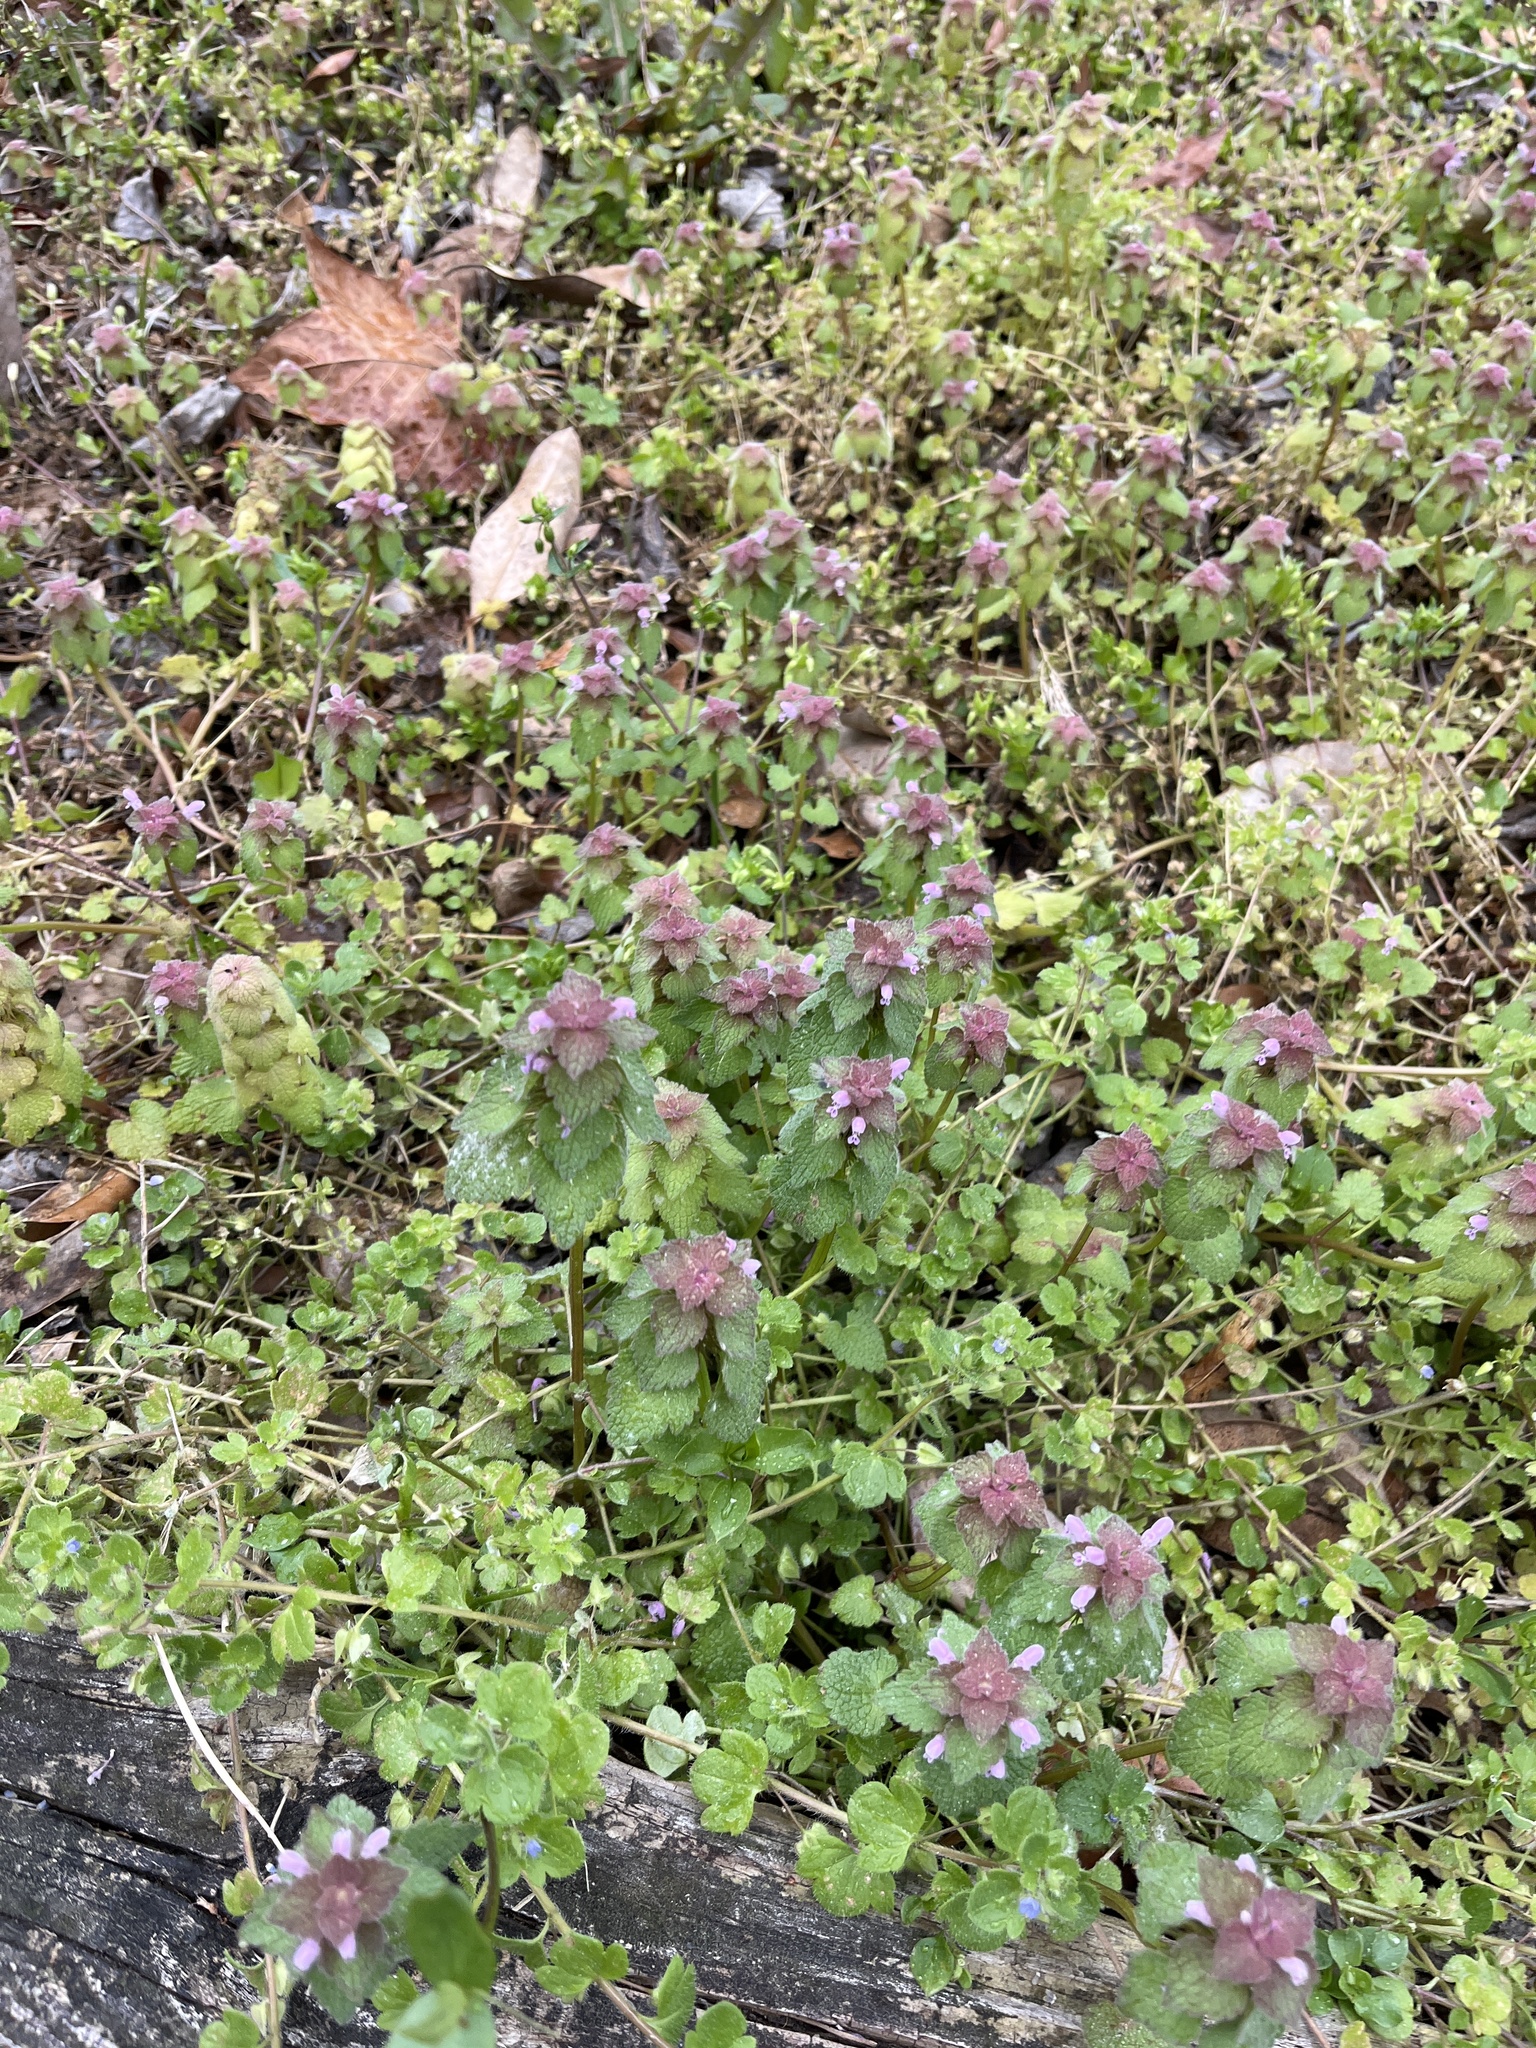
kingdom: Plantae
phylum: Tracheophyta
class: Magnoliopsida
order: Lamiales
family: Lamiaceae
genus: Lamium
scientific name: Lamium purpureum
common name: Red dead-nettle
